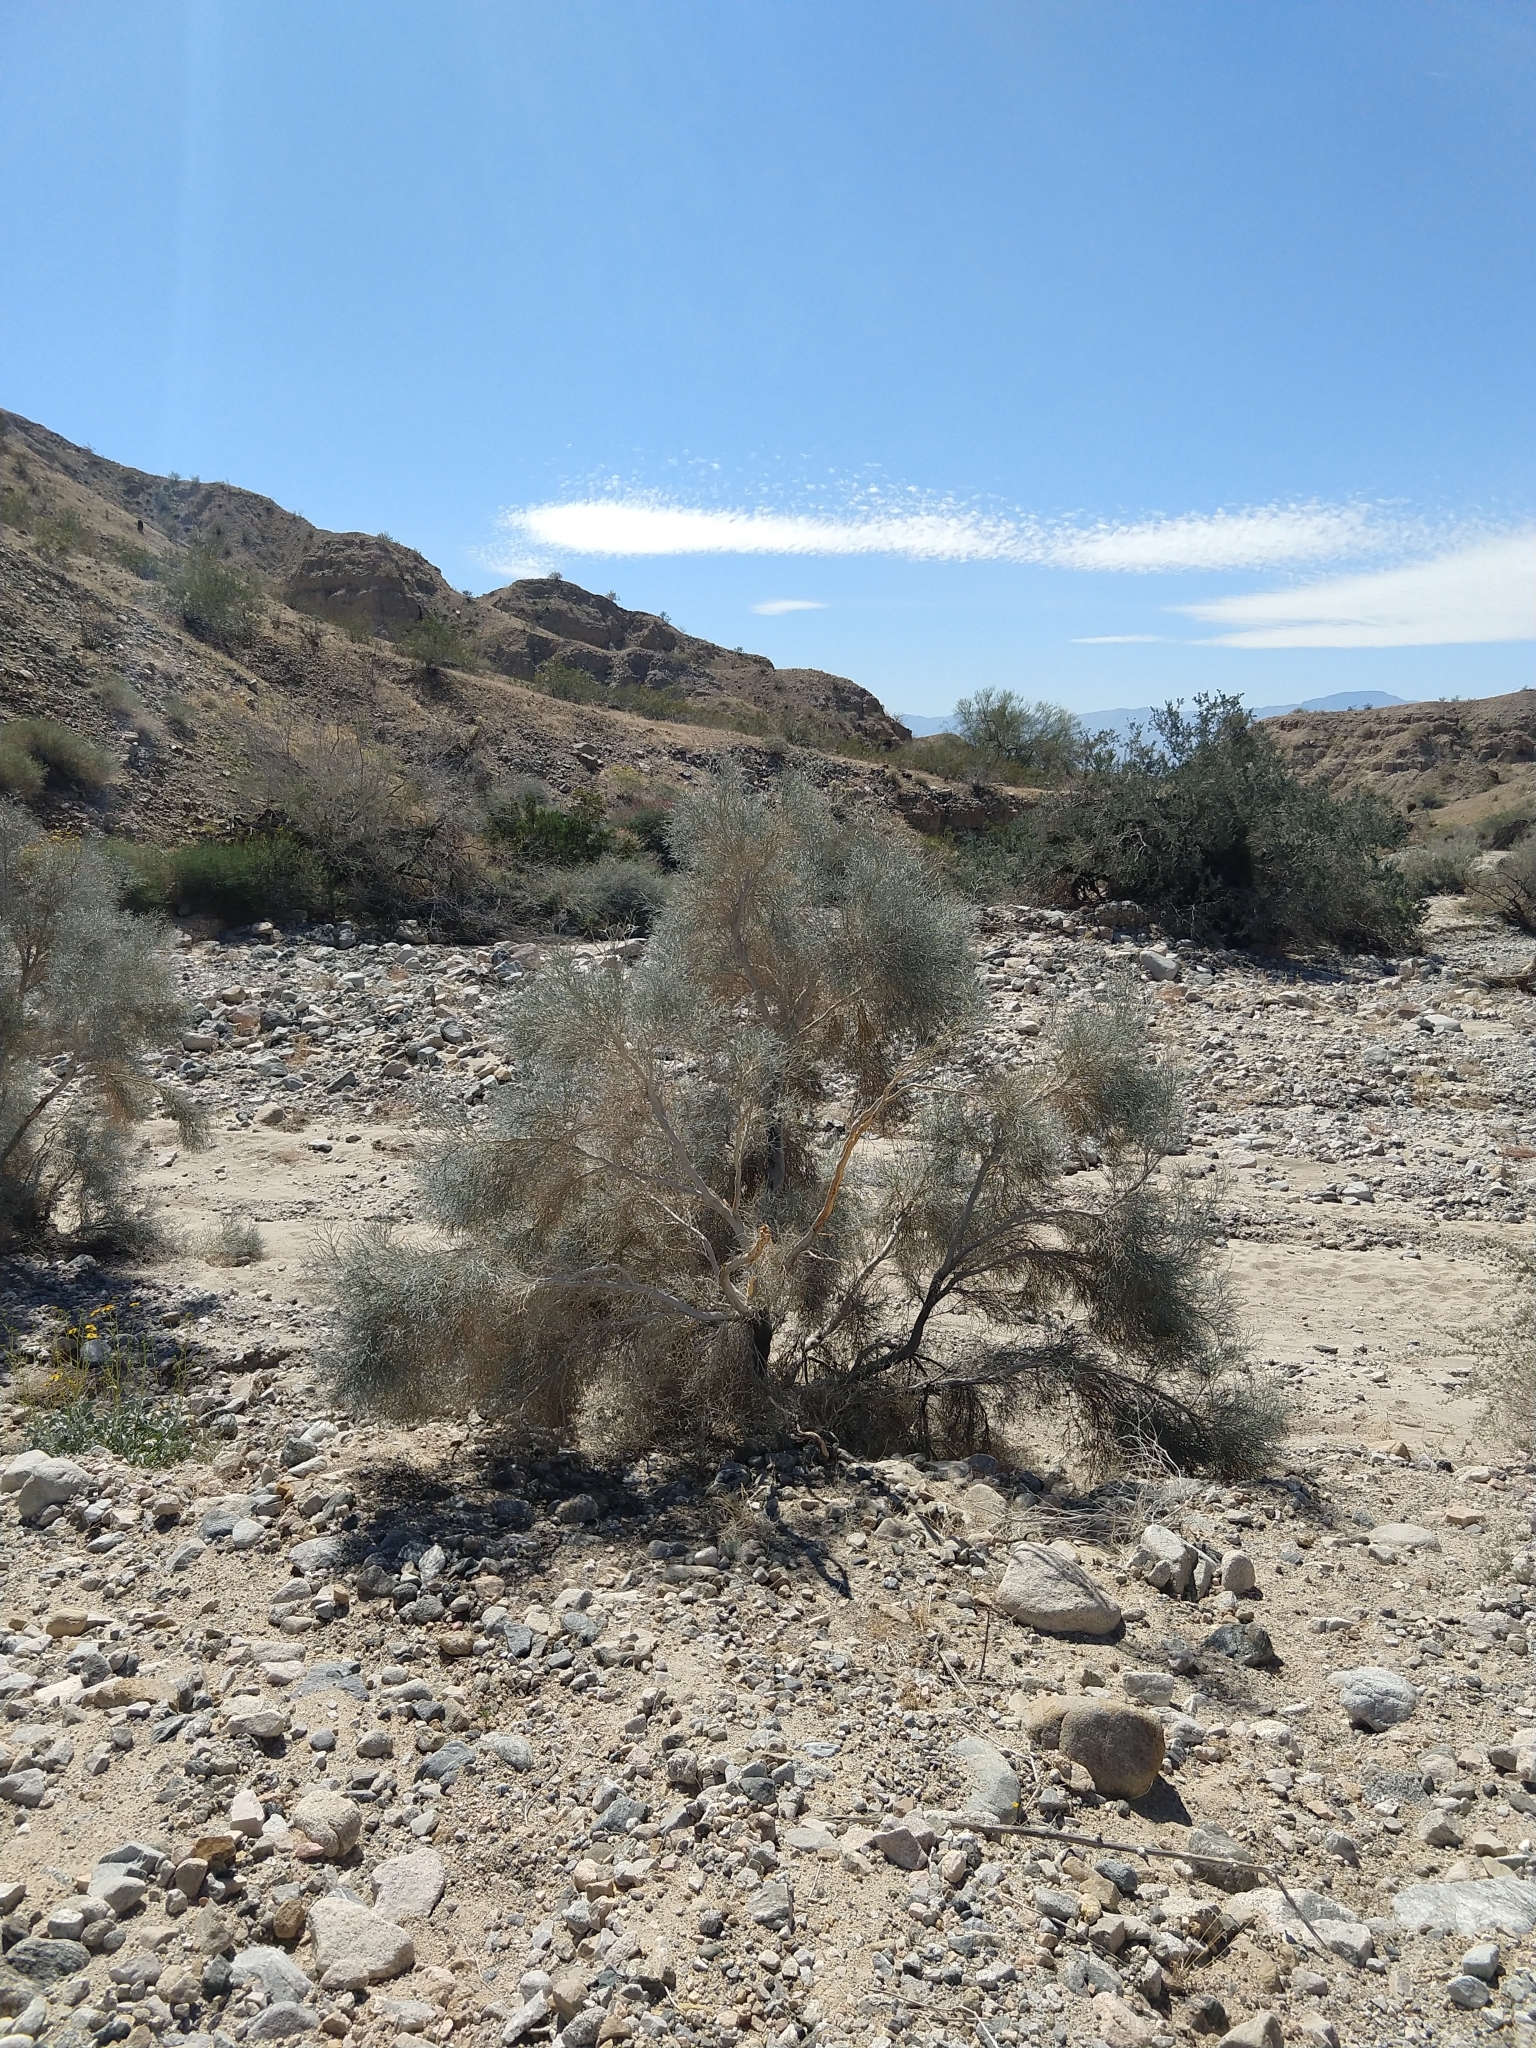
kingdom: Plantae
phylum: Tracheophyta
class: Magnoliopsida
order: Fabales
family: Fabaceae
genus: Psorothamnus
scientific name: Psorothamnus spinosus
